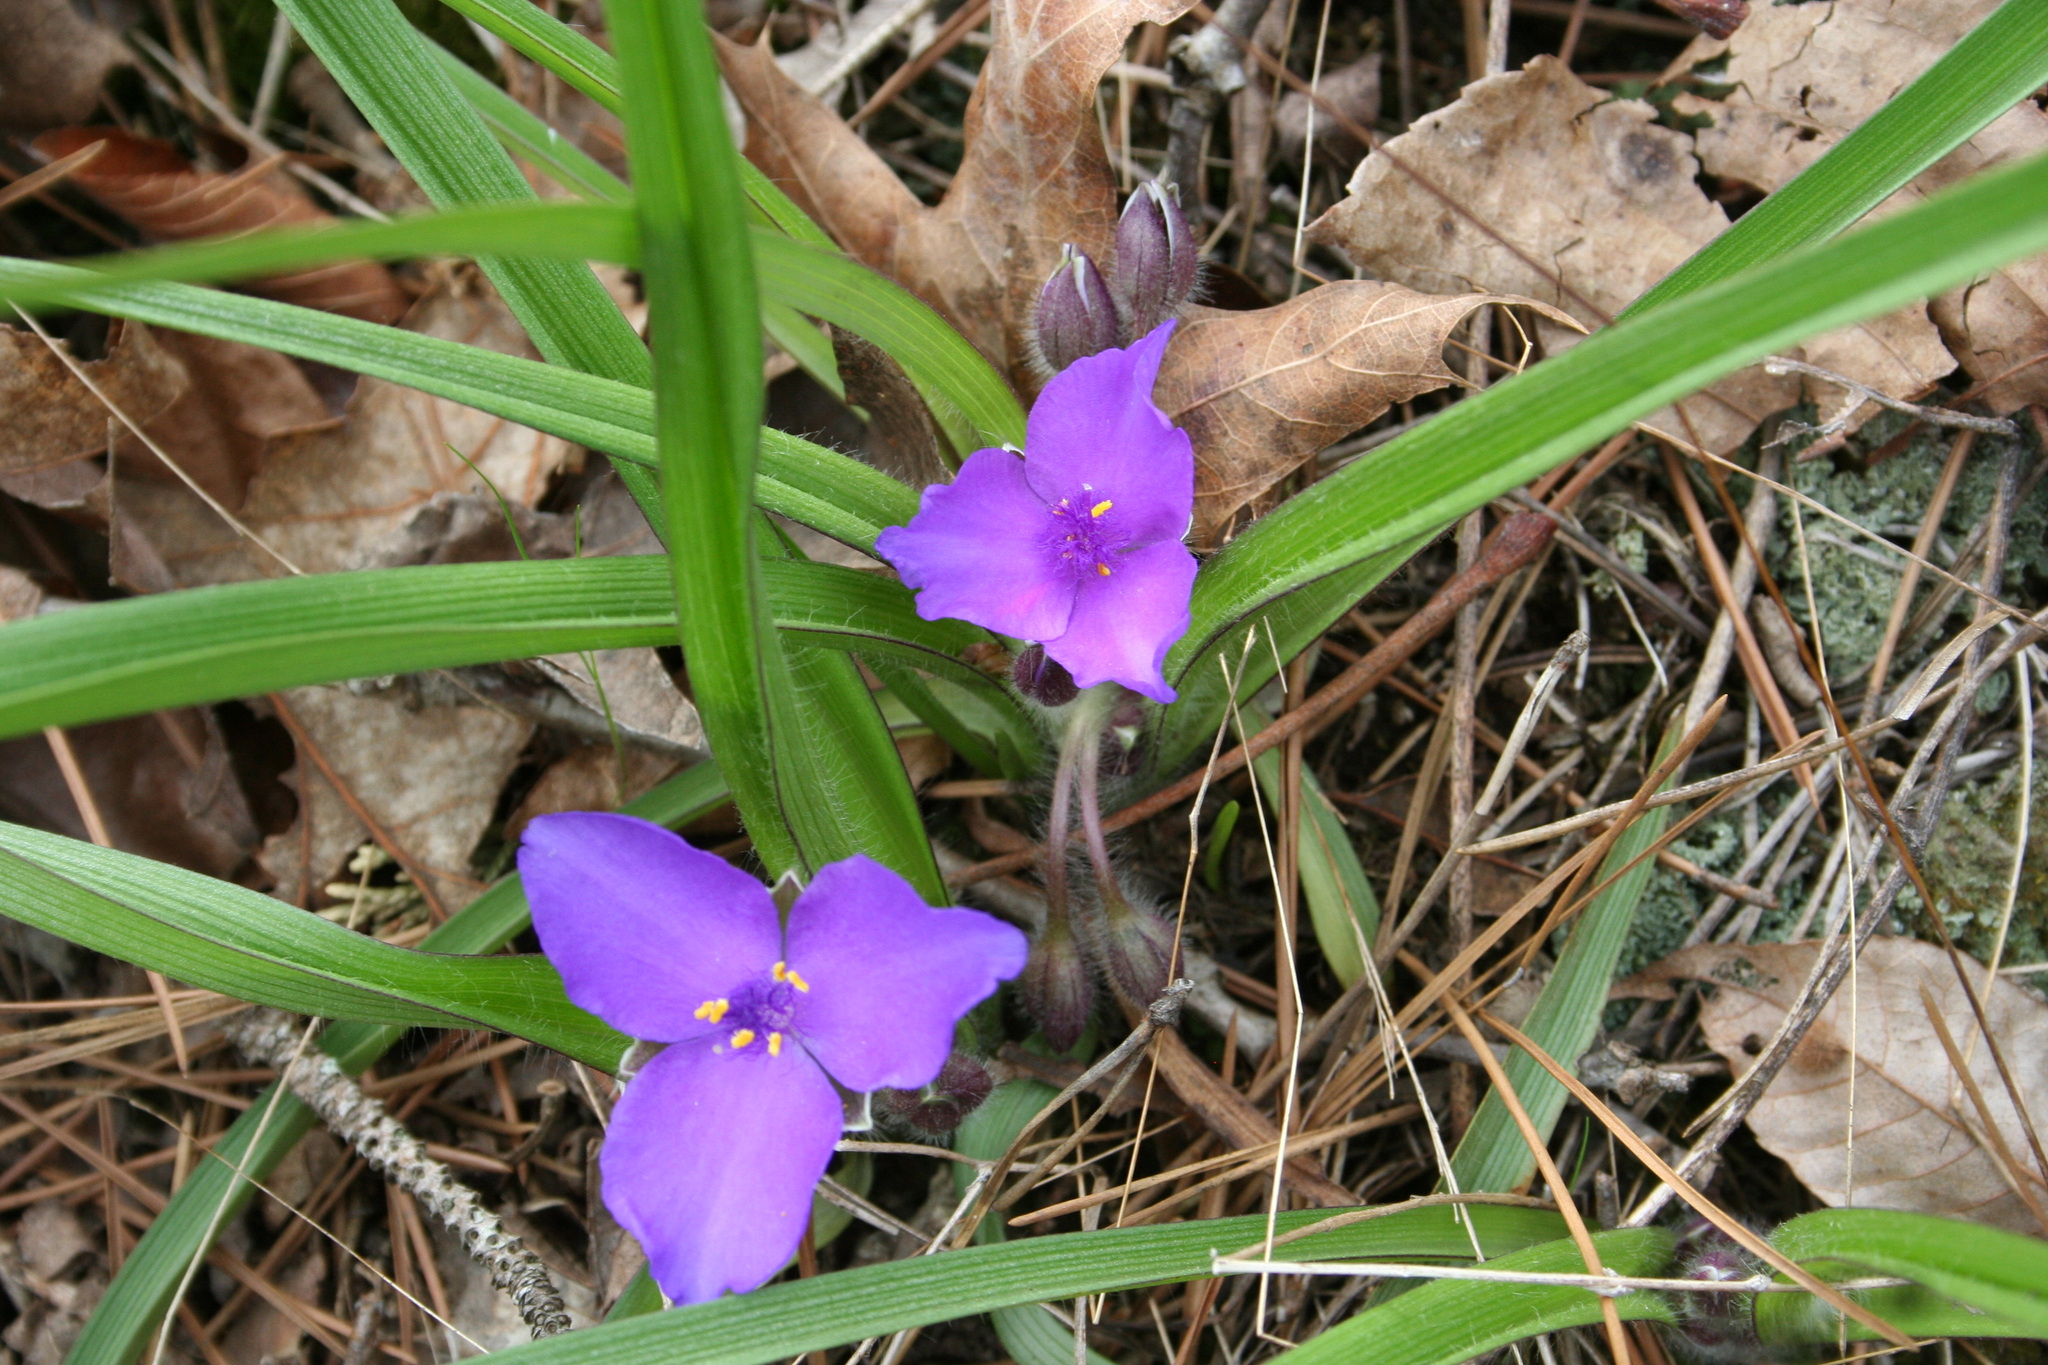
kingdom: Plantae
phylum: Tracheophyta
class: Liliopsida
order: Commelinales
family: Commelinaceae
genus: Tradescantia
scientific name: Tradescantia longipes
